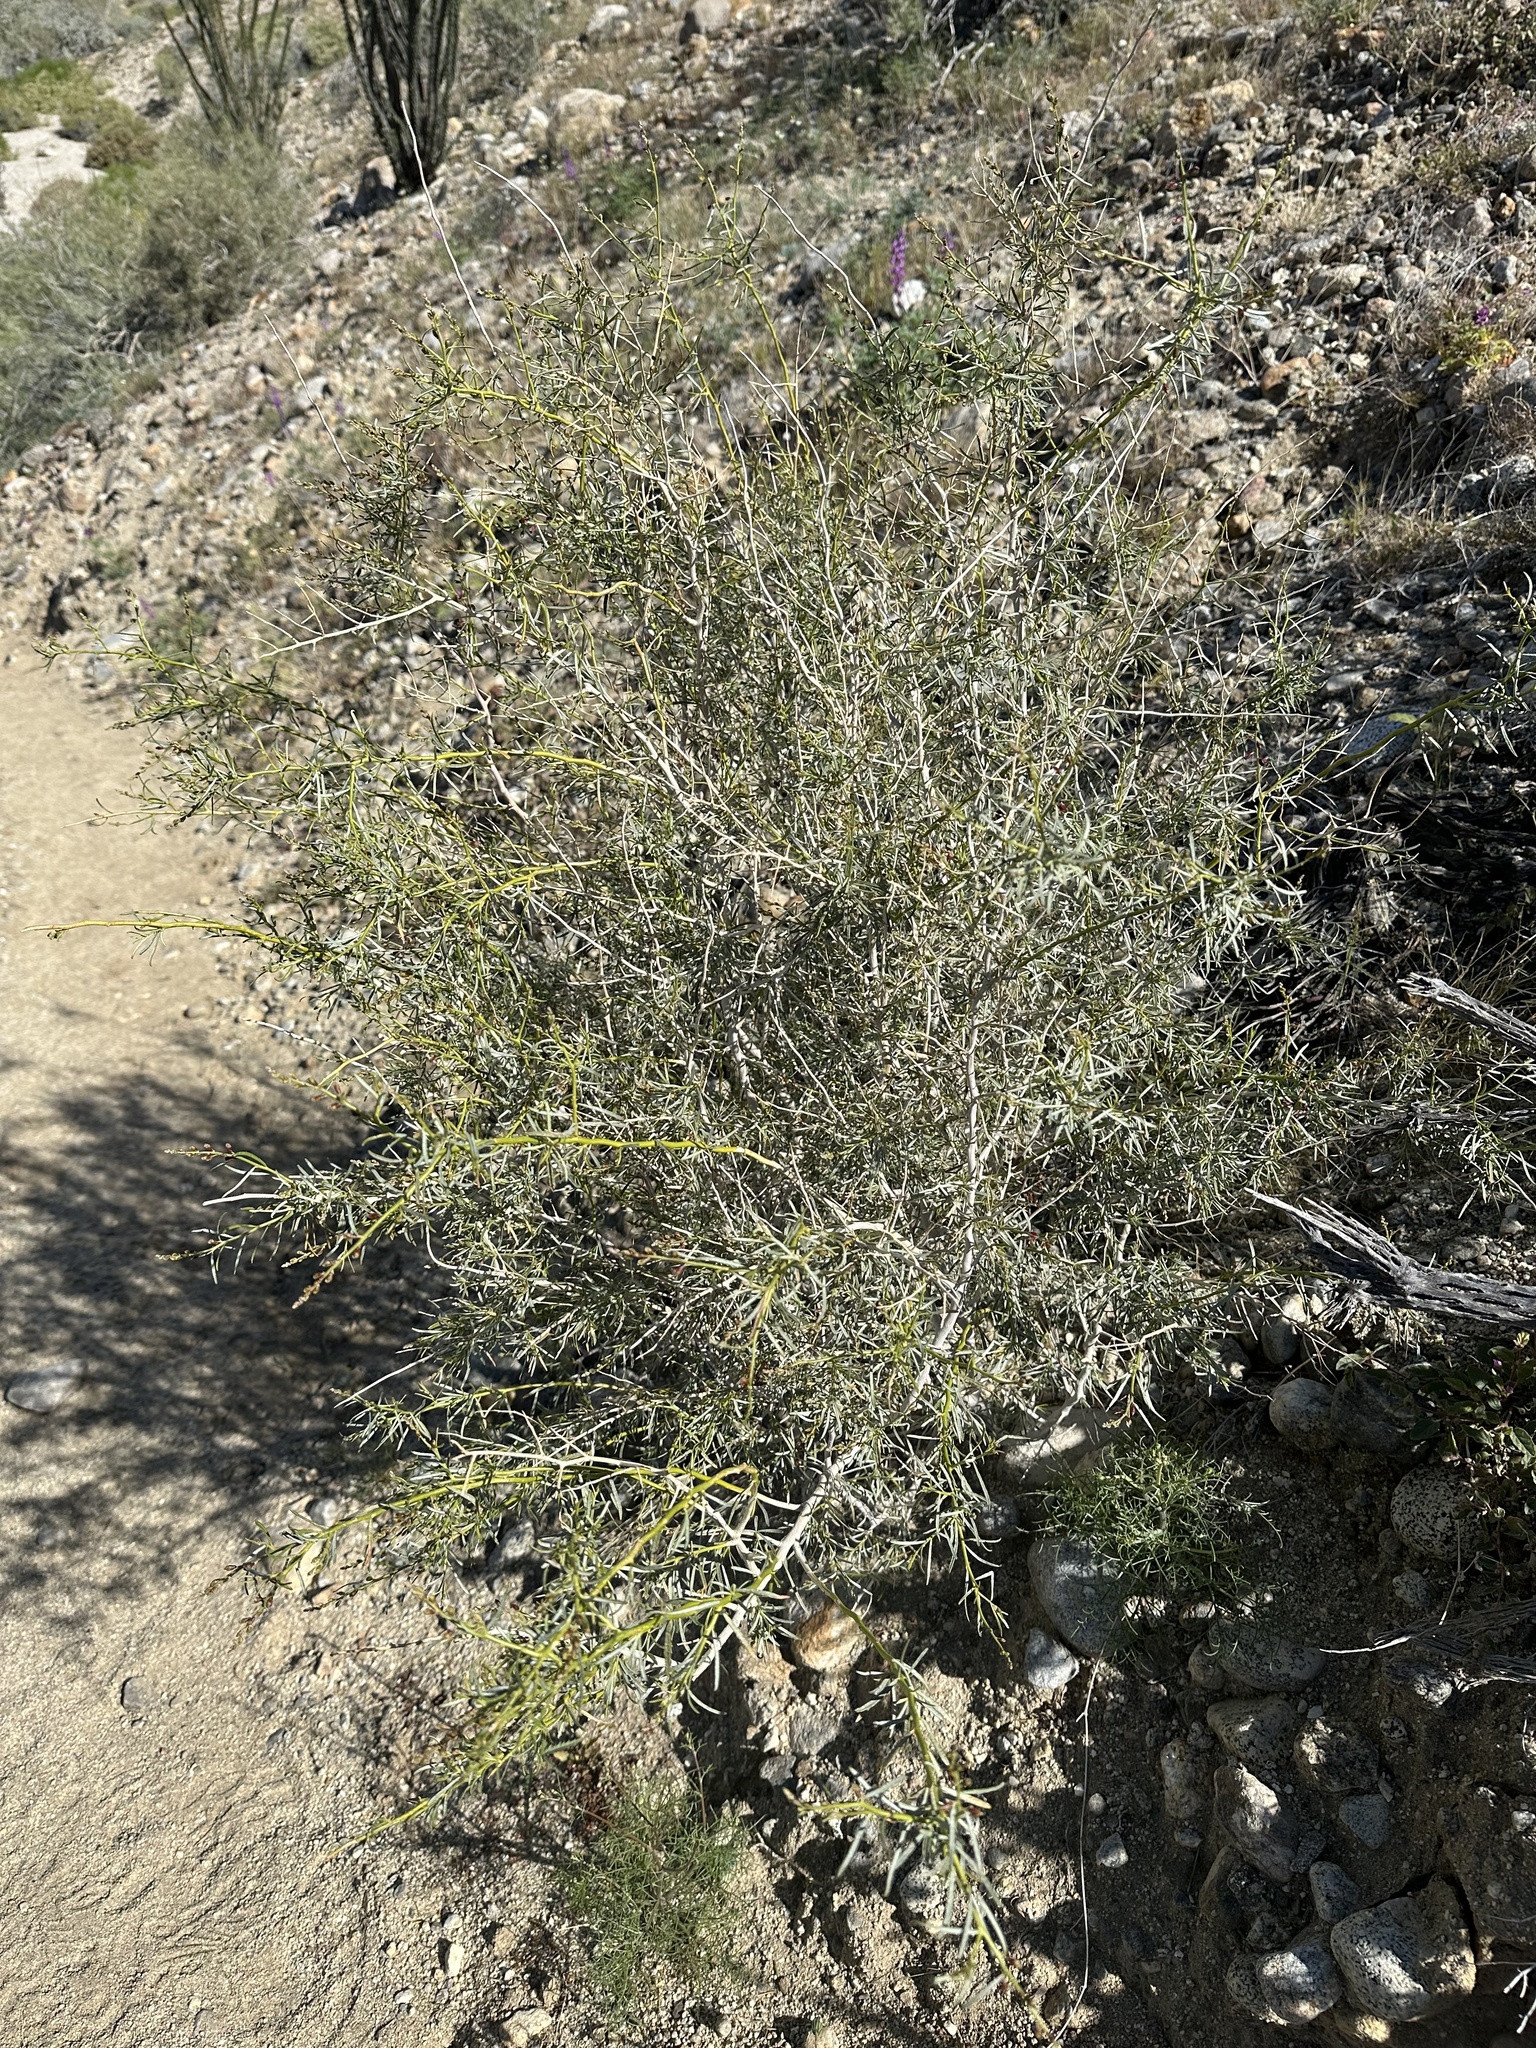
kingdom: Plantae
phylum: Tracheophyta
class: Magnoliopsida
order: Fabales
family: Fabaceae
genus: Psorothamnus
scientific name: Psorothamnus schottii
